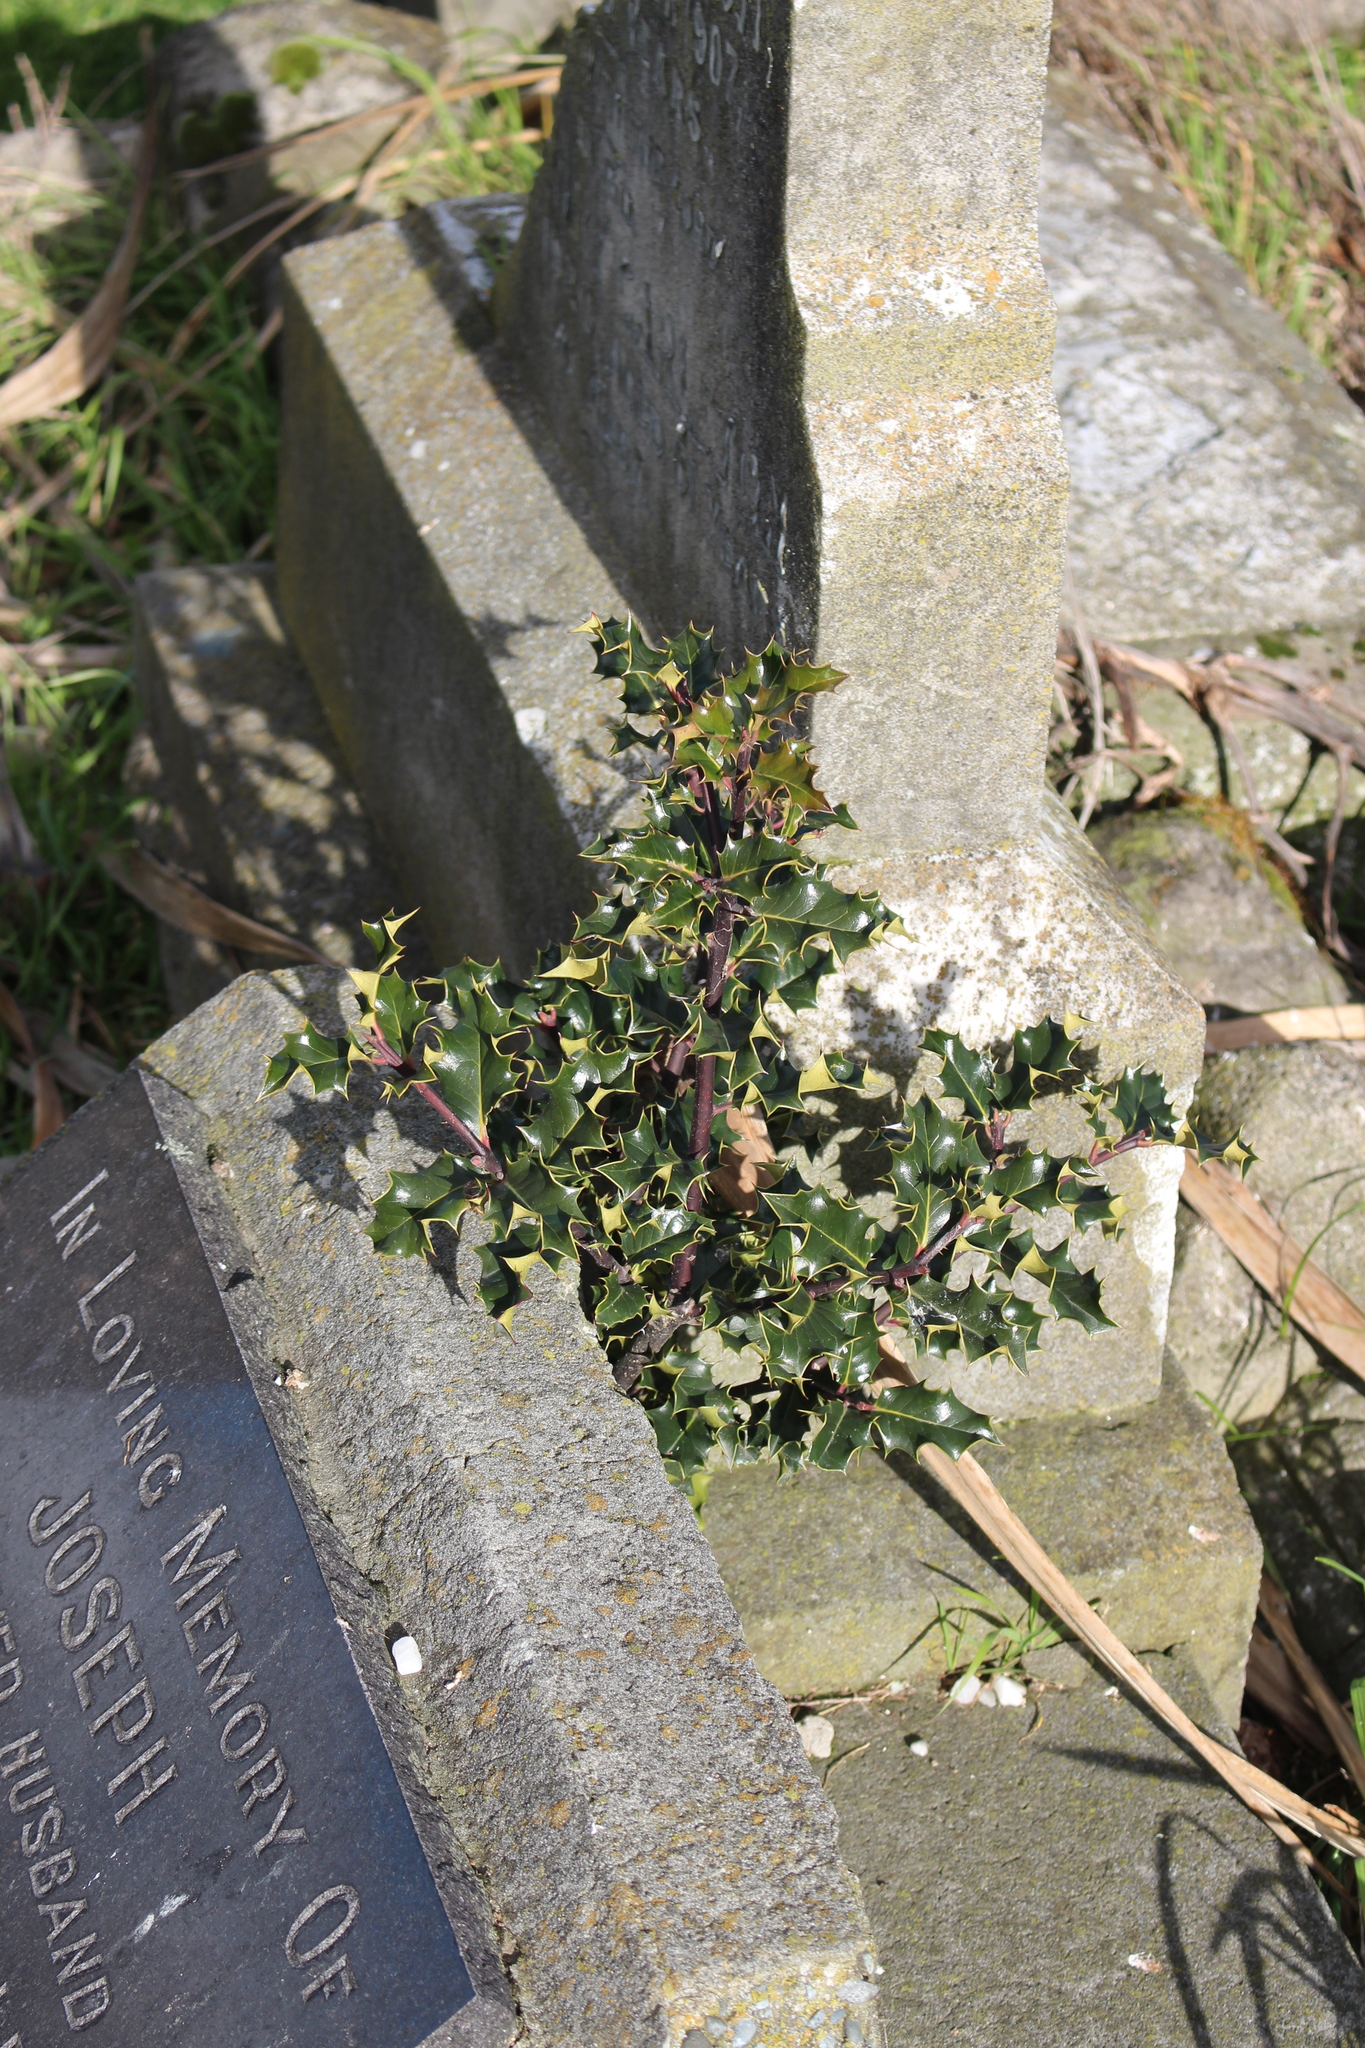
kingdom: Plantae
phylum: Tracheophyta
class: Magnoliopsida
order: Aquifoliales
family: Aquifoliaceae
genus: Ilex
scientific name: Ilex aquifolium
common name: English holly
